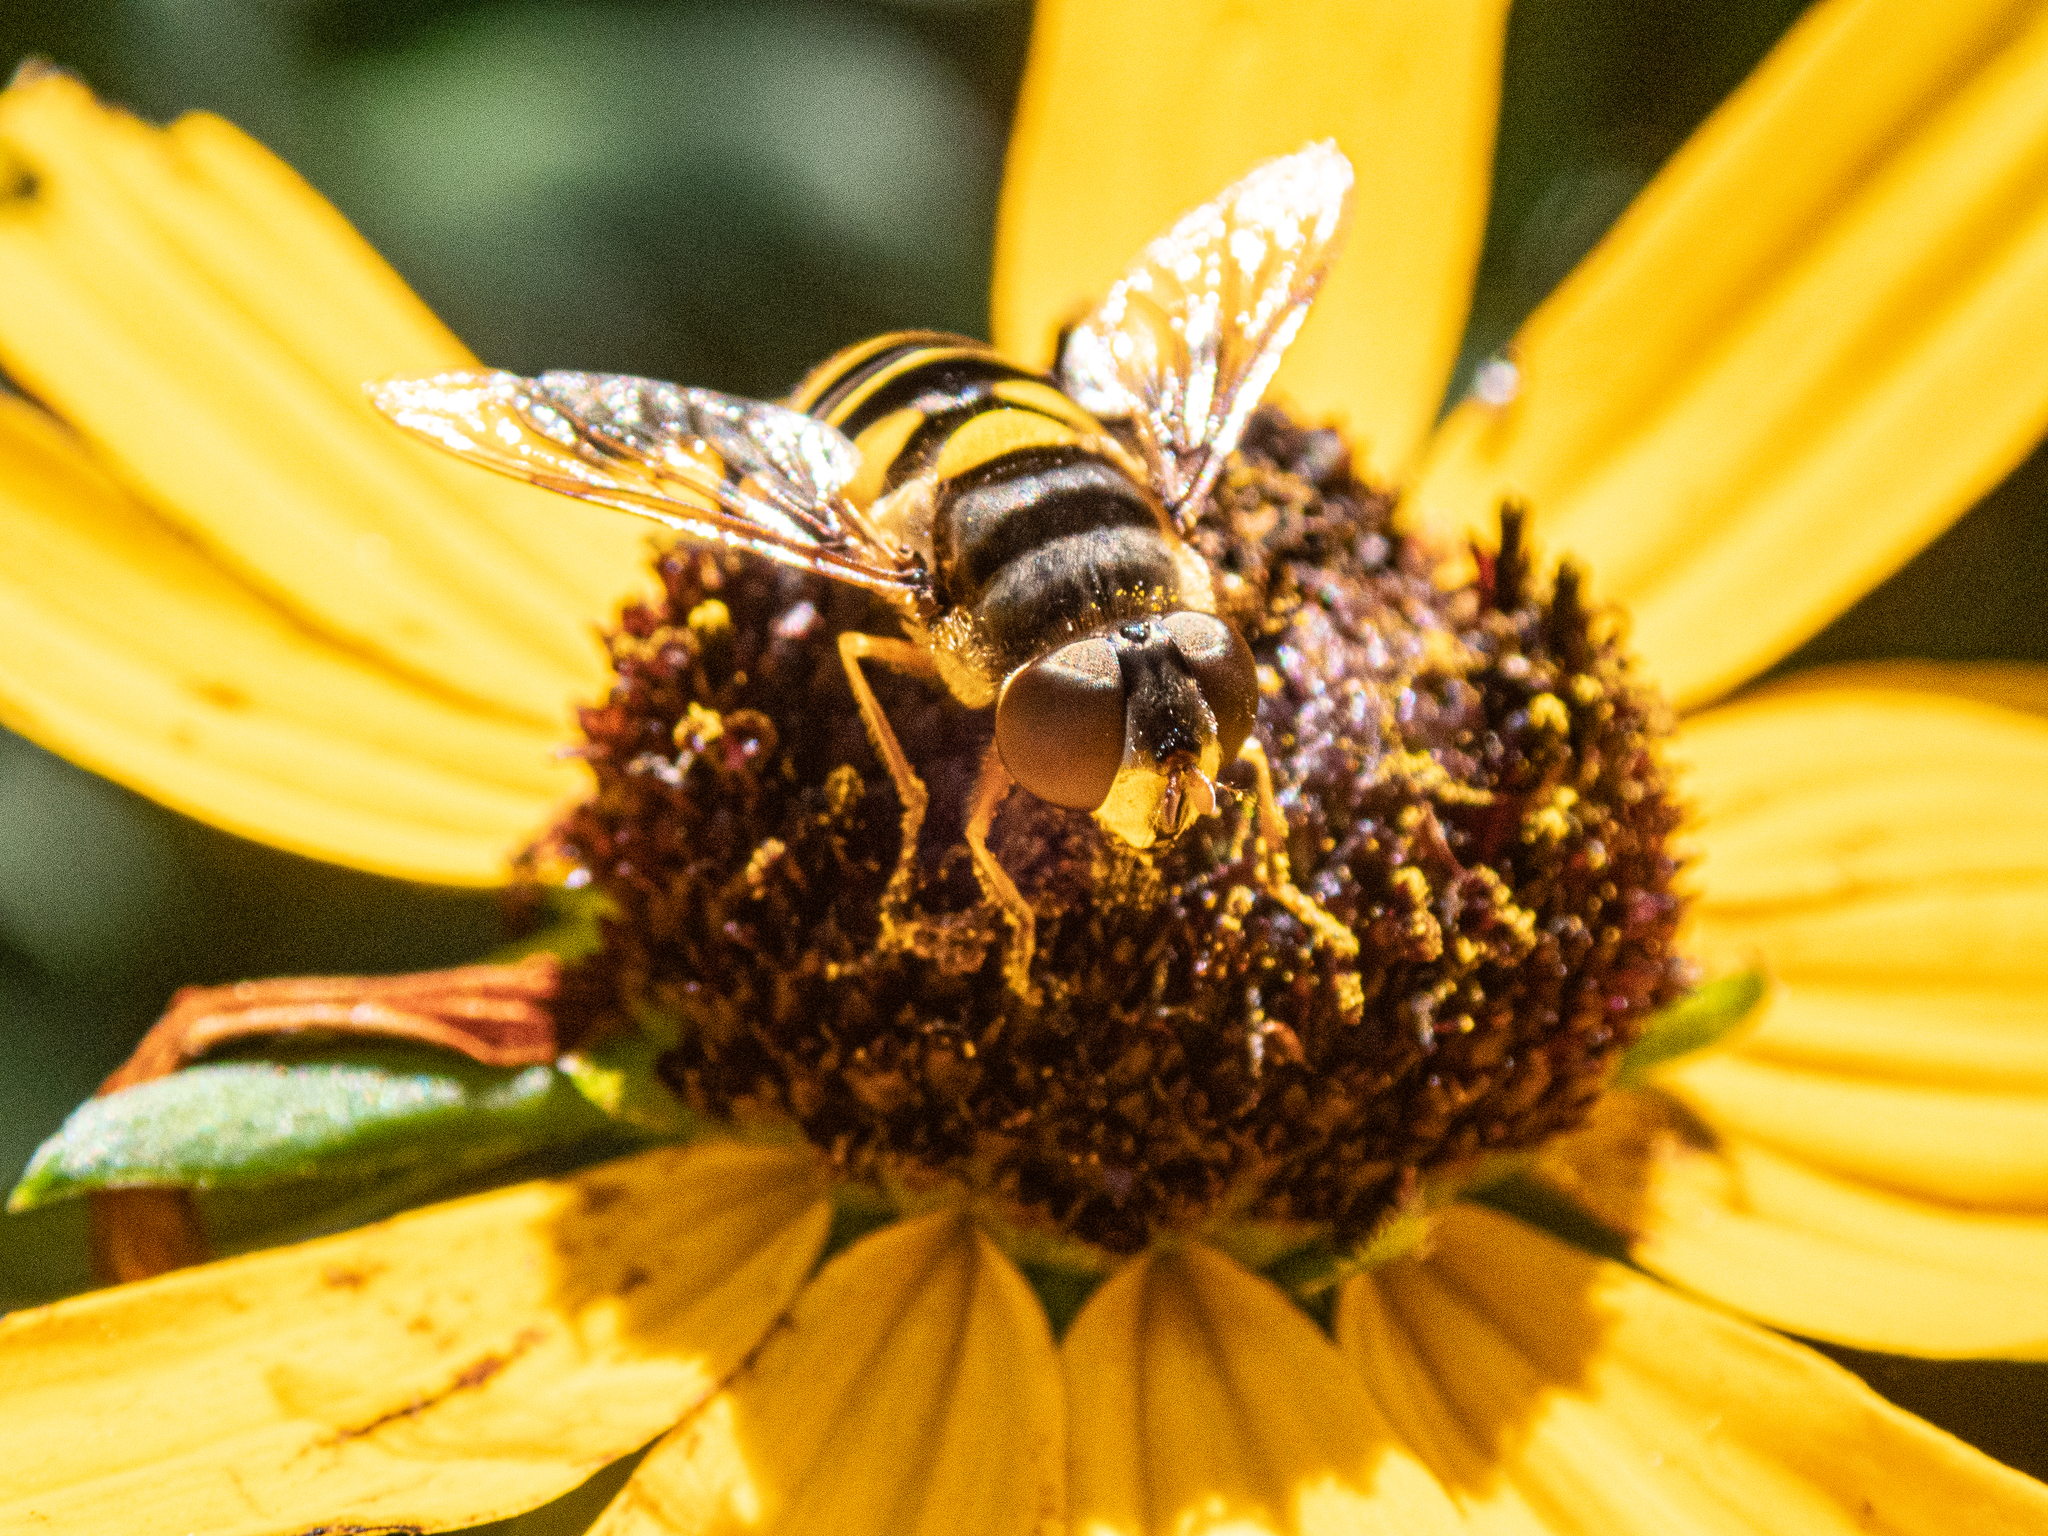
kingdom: Animalia
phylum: Arthropoda
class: Insecta
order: Diptera
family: Syrphidae
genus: Eristalis
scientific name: Eristalis transversa
